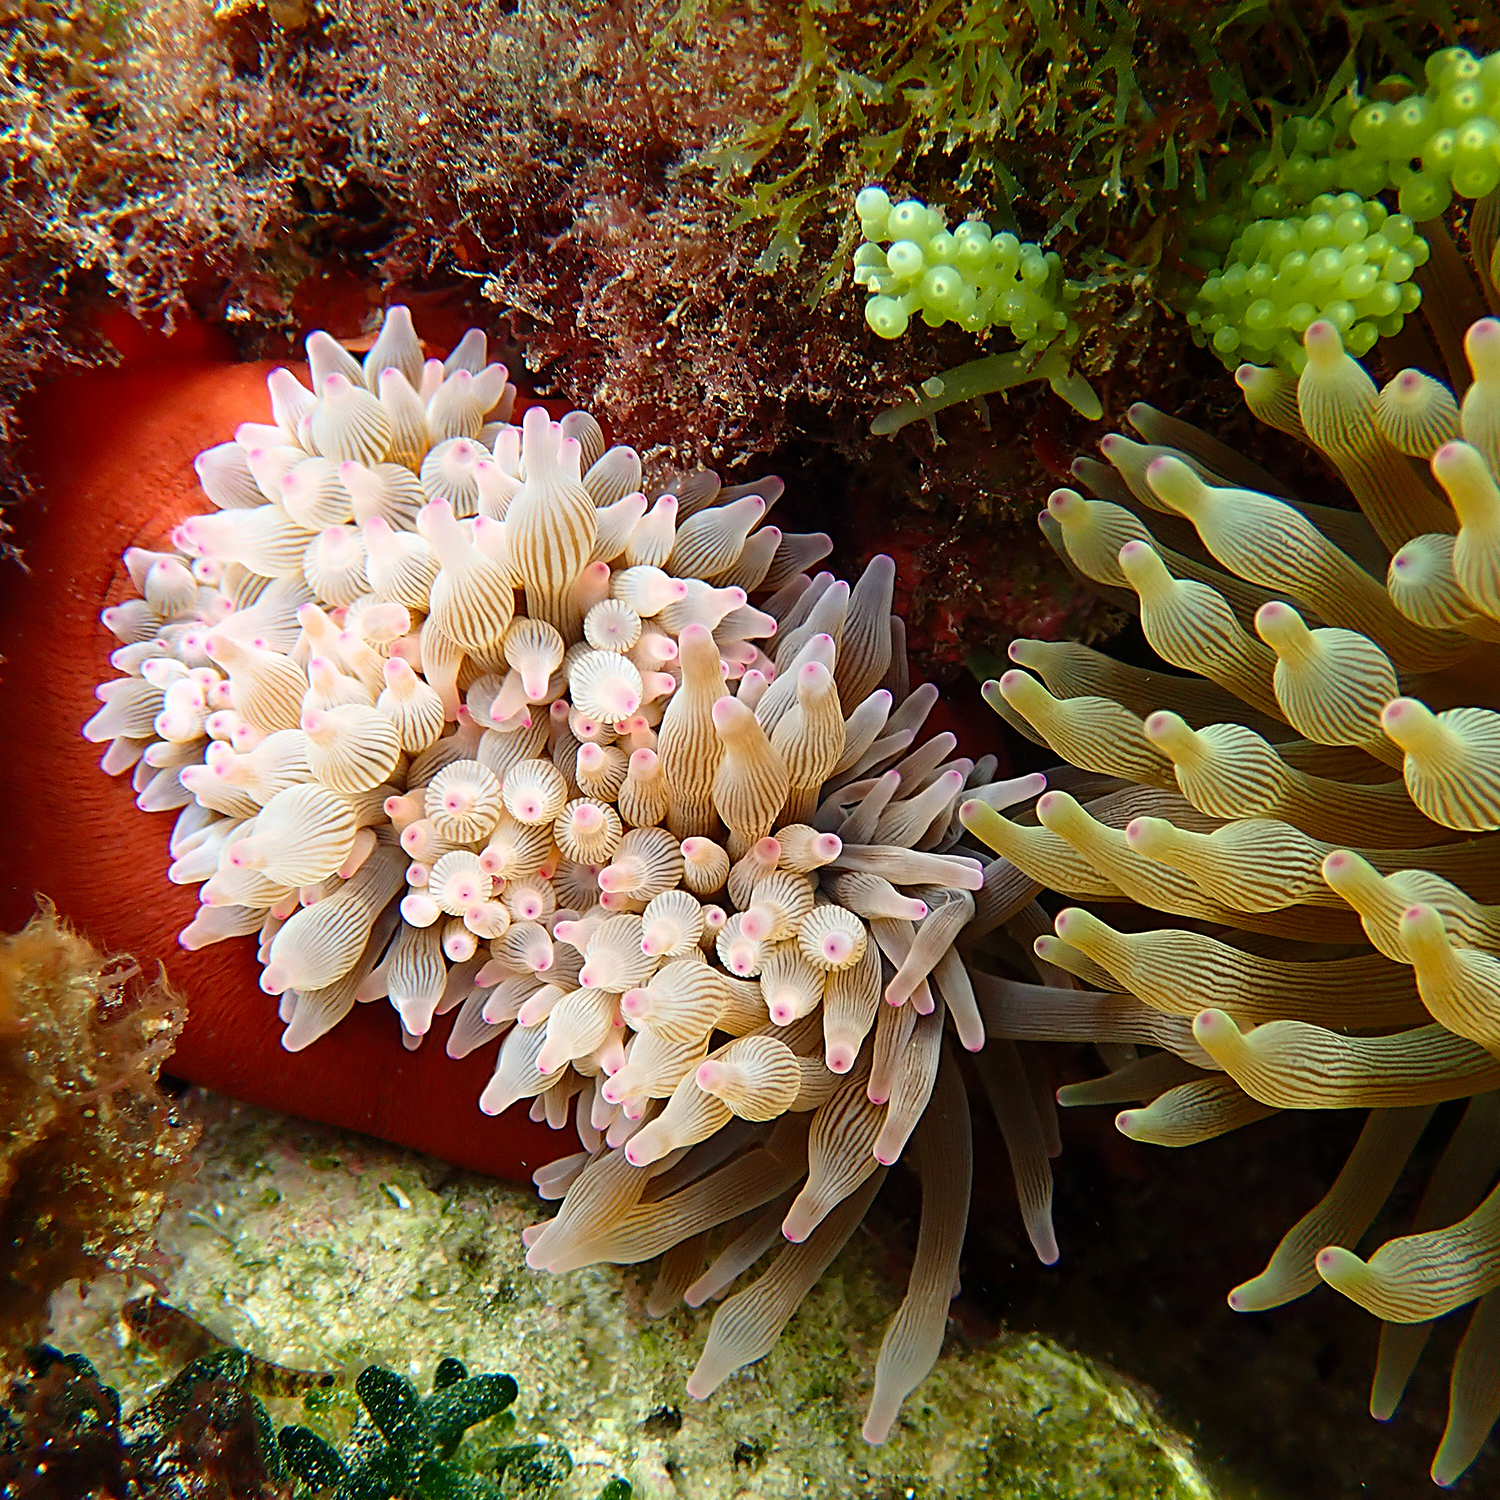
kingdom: Animalia
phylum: Cnidaria
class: Anthozoa
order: Actiniaria
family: Actiniidae
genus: Entacmaea
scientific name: Entacmaea quadricolor
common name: Bulb tentacle sea anemone
